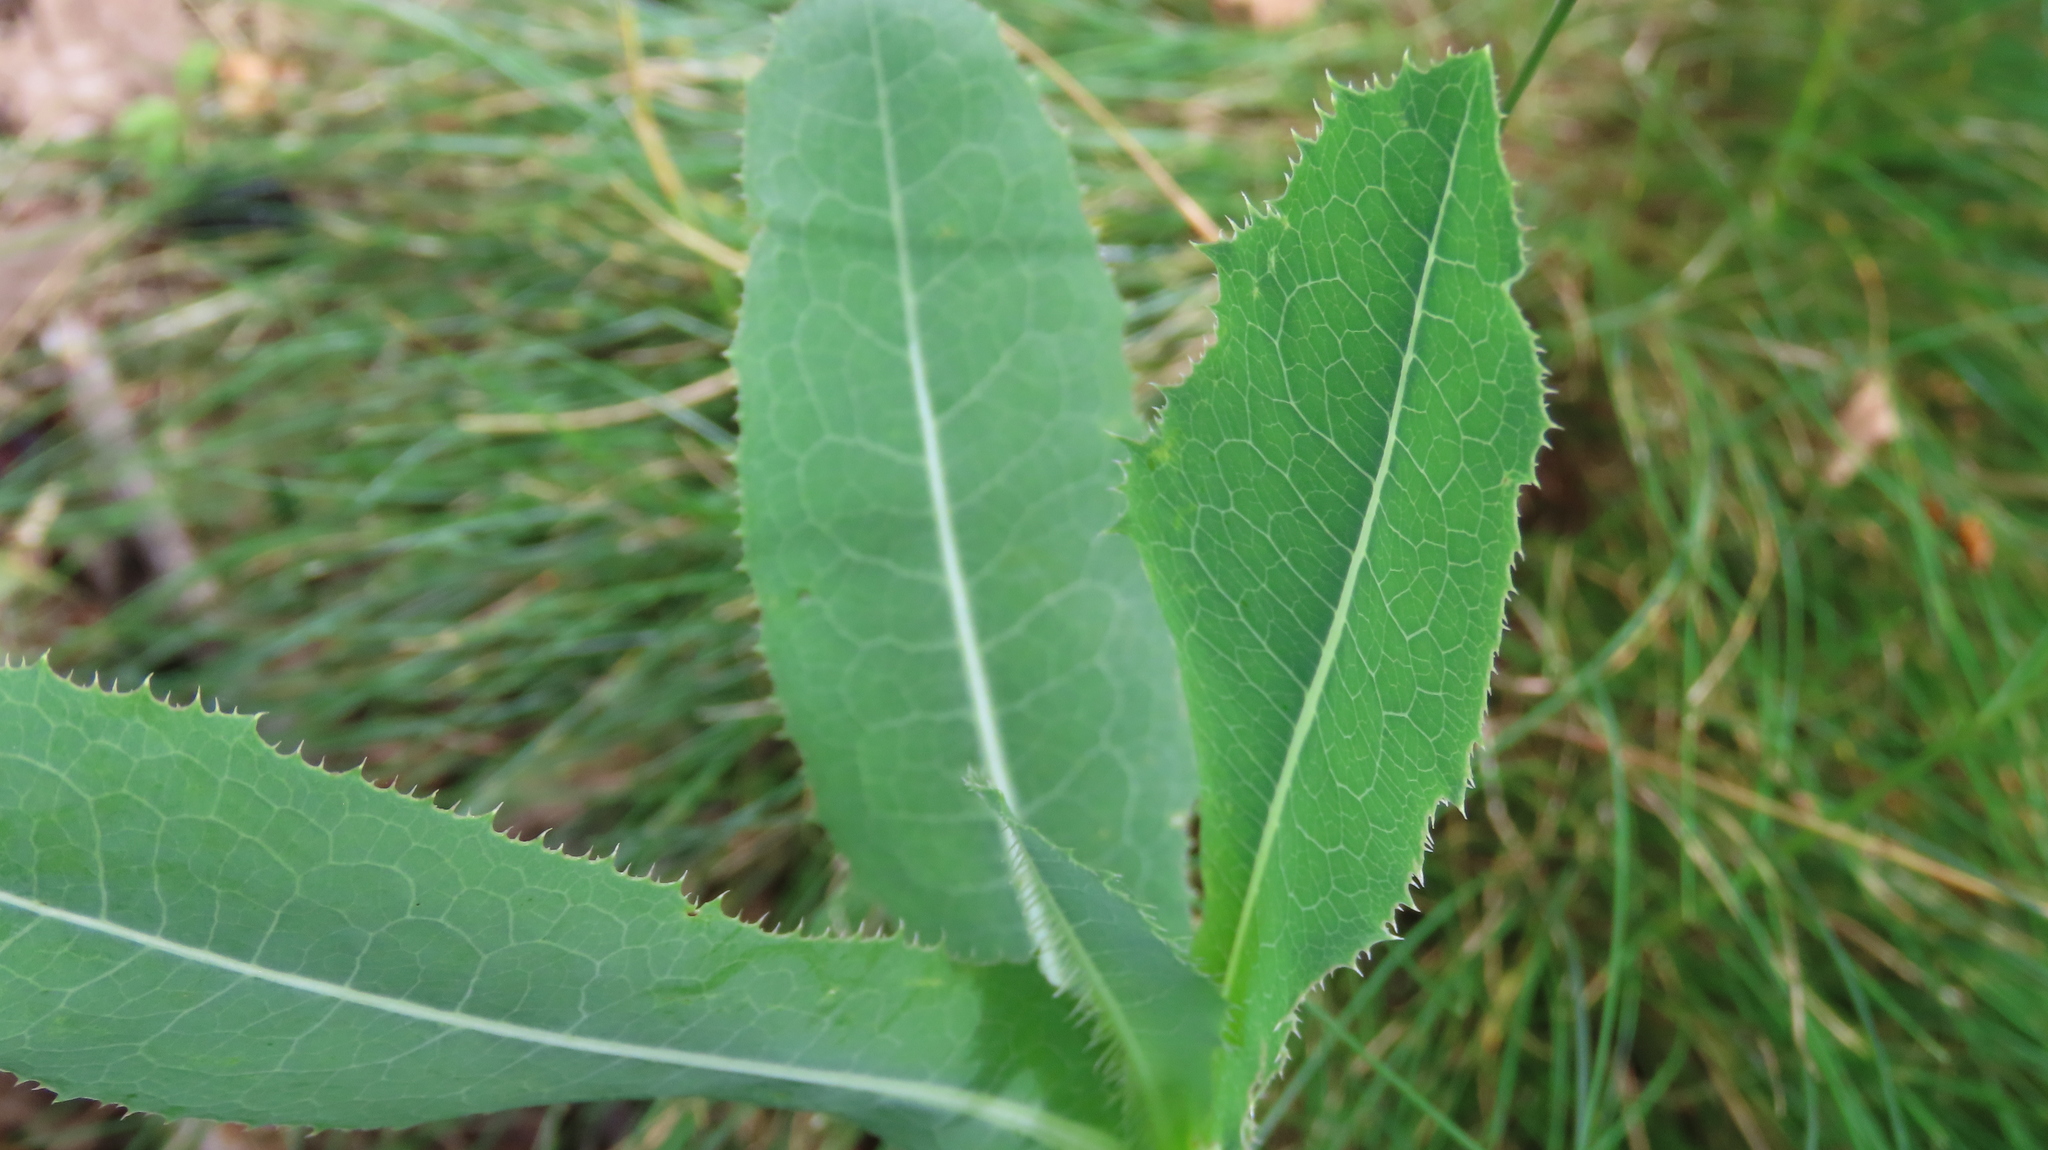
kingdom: Plantae
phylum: Tracheophyta
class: Magnoliopsida
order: Asterales
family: Asteraceae
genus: Lactuca
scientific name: Lactuca serriola
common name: Prickly lettuce
